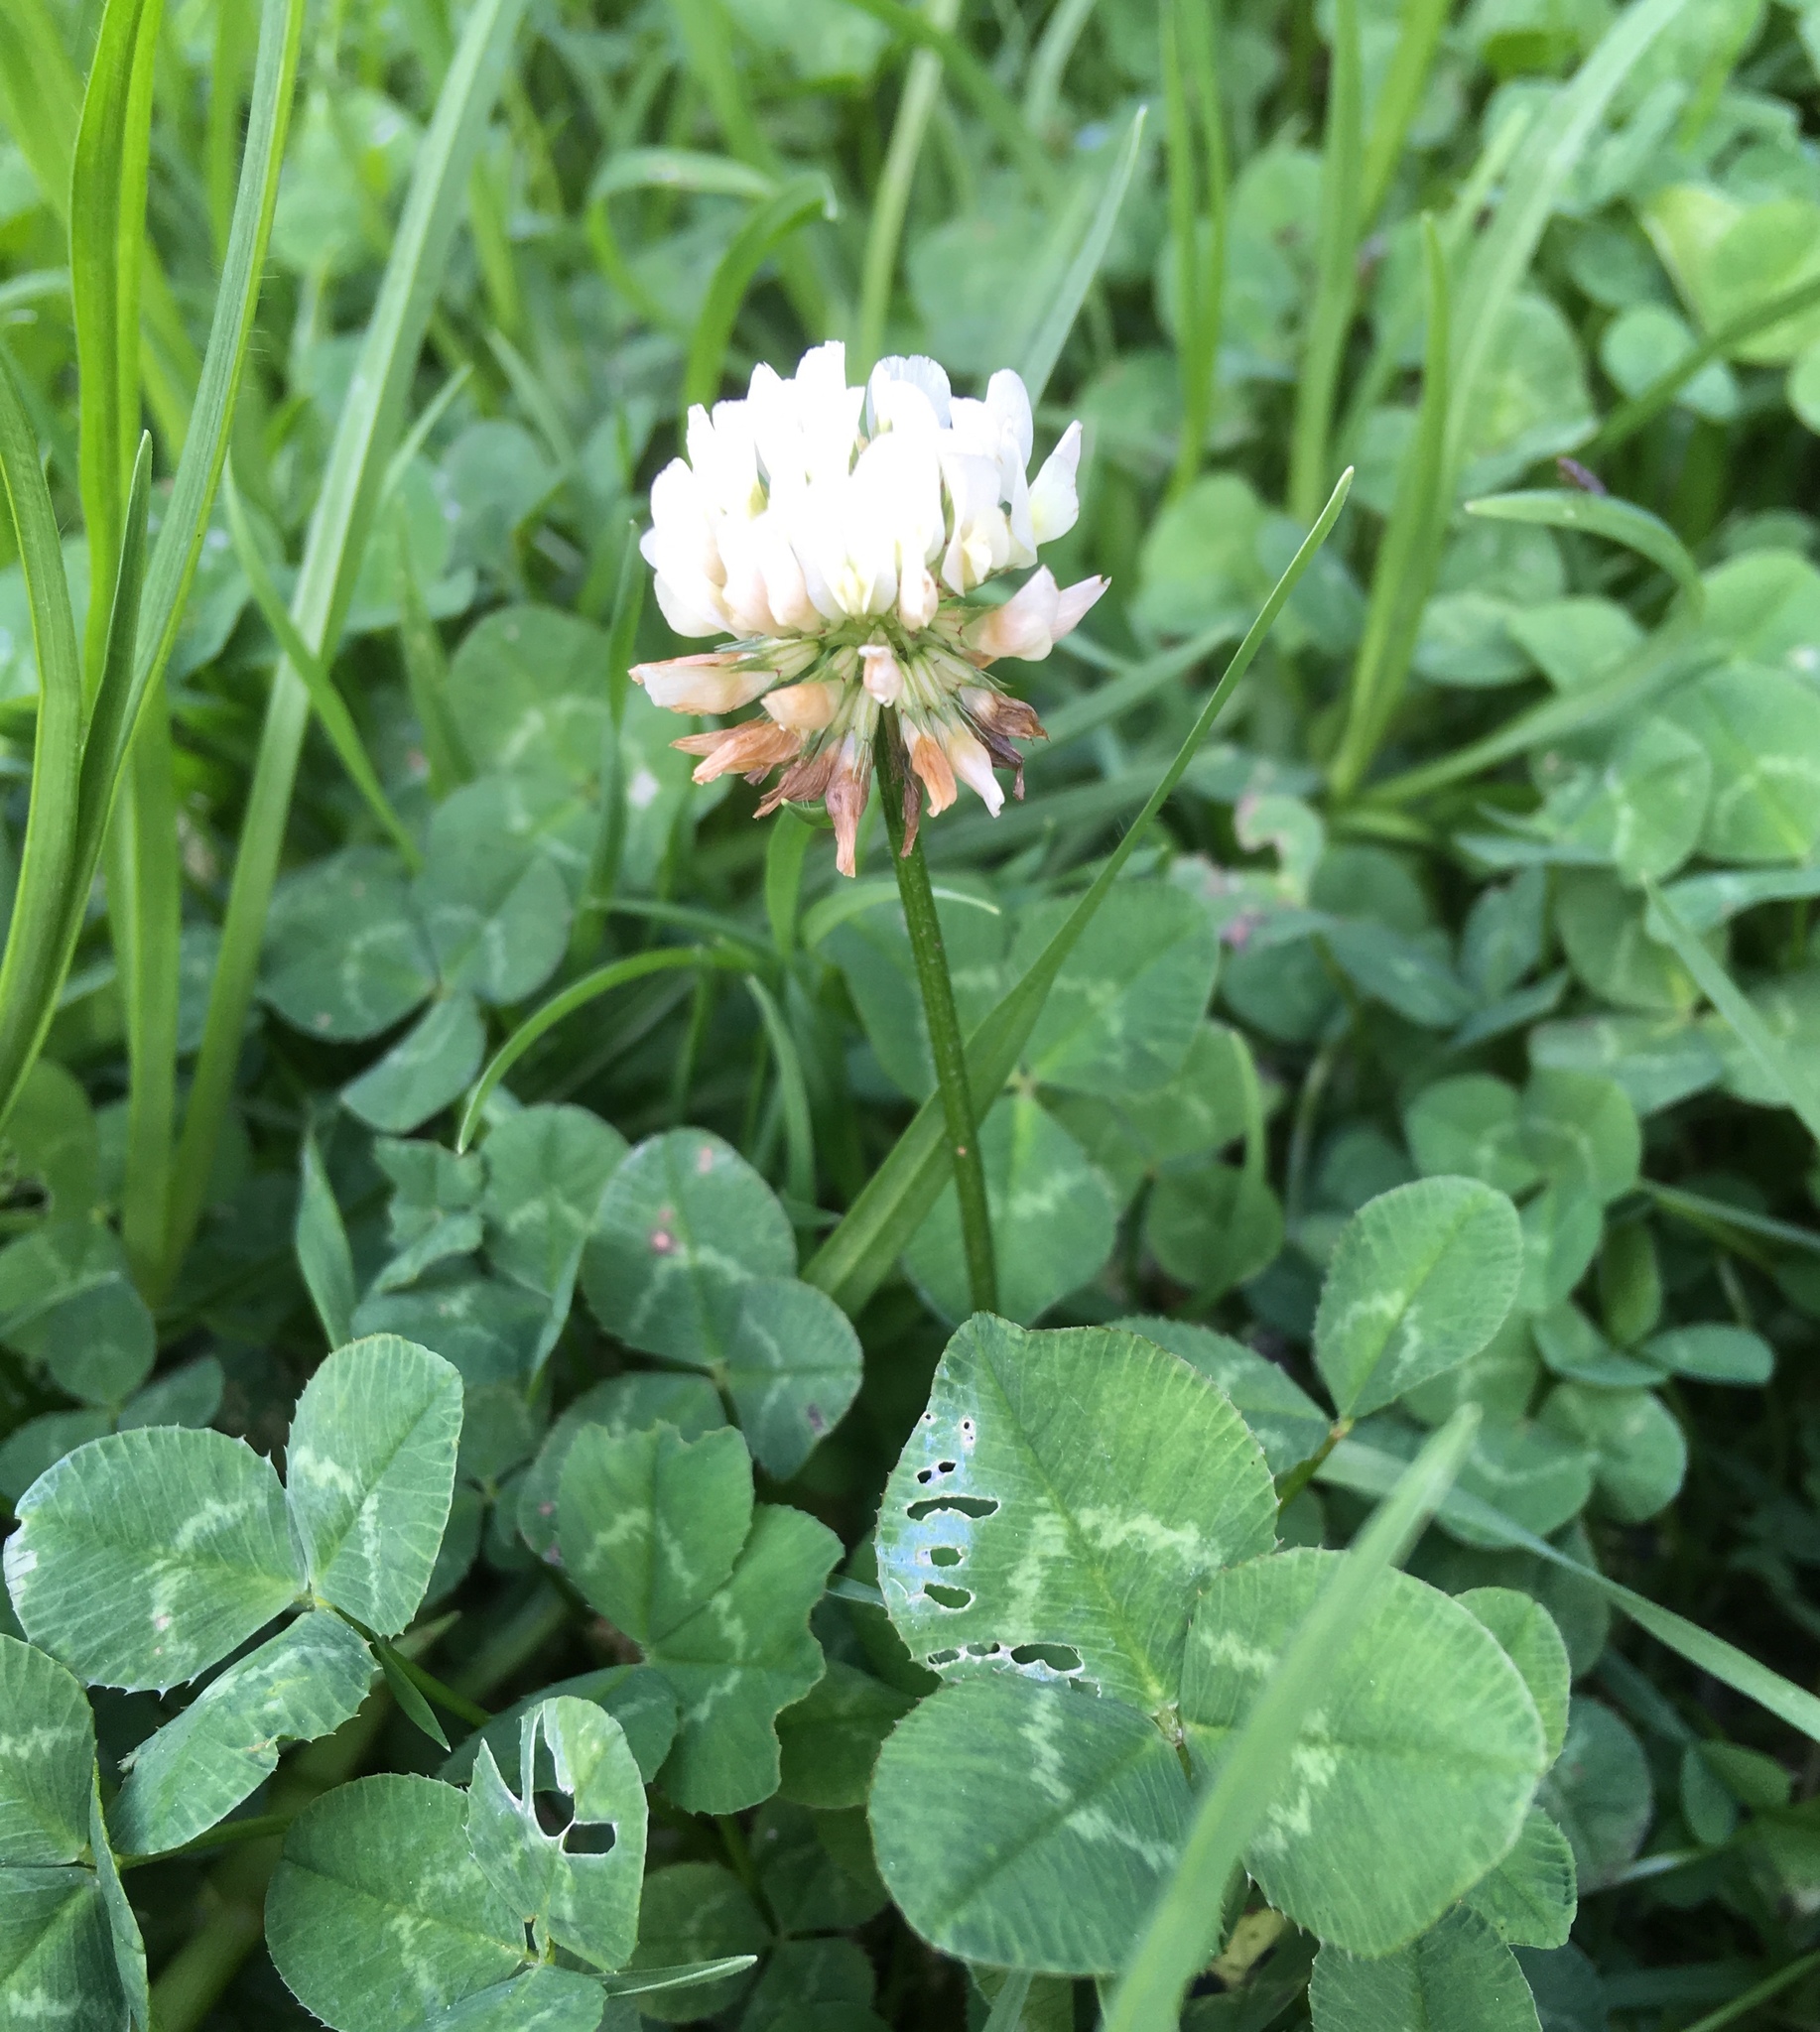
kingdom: Plantae
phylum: Tracheophyta
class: Magnoliopsida
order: Fabales
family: Fabaceae
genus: Trifolium
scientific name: Trifolium repens
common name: White clover
